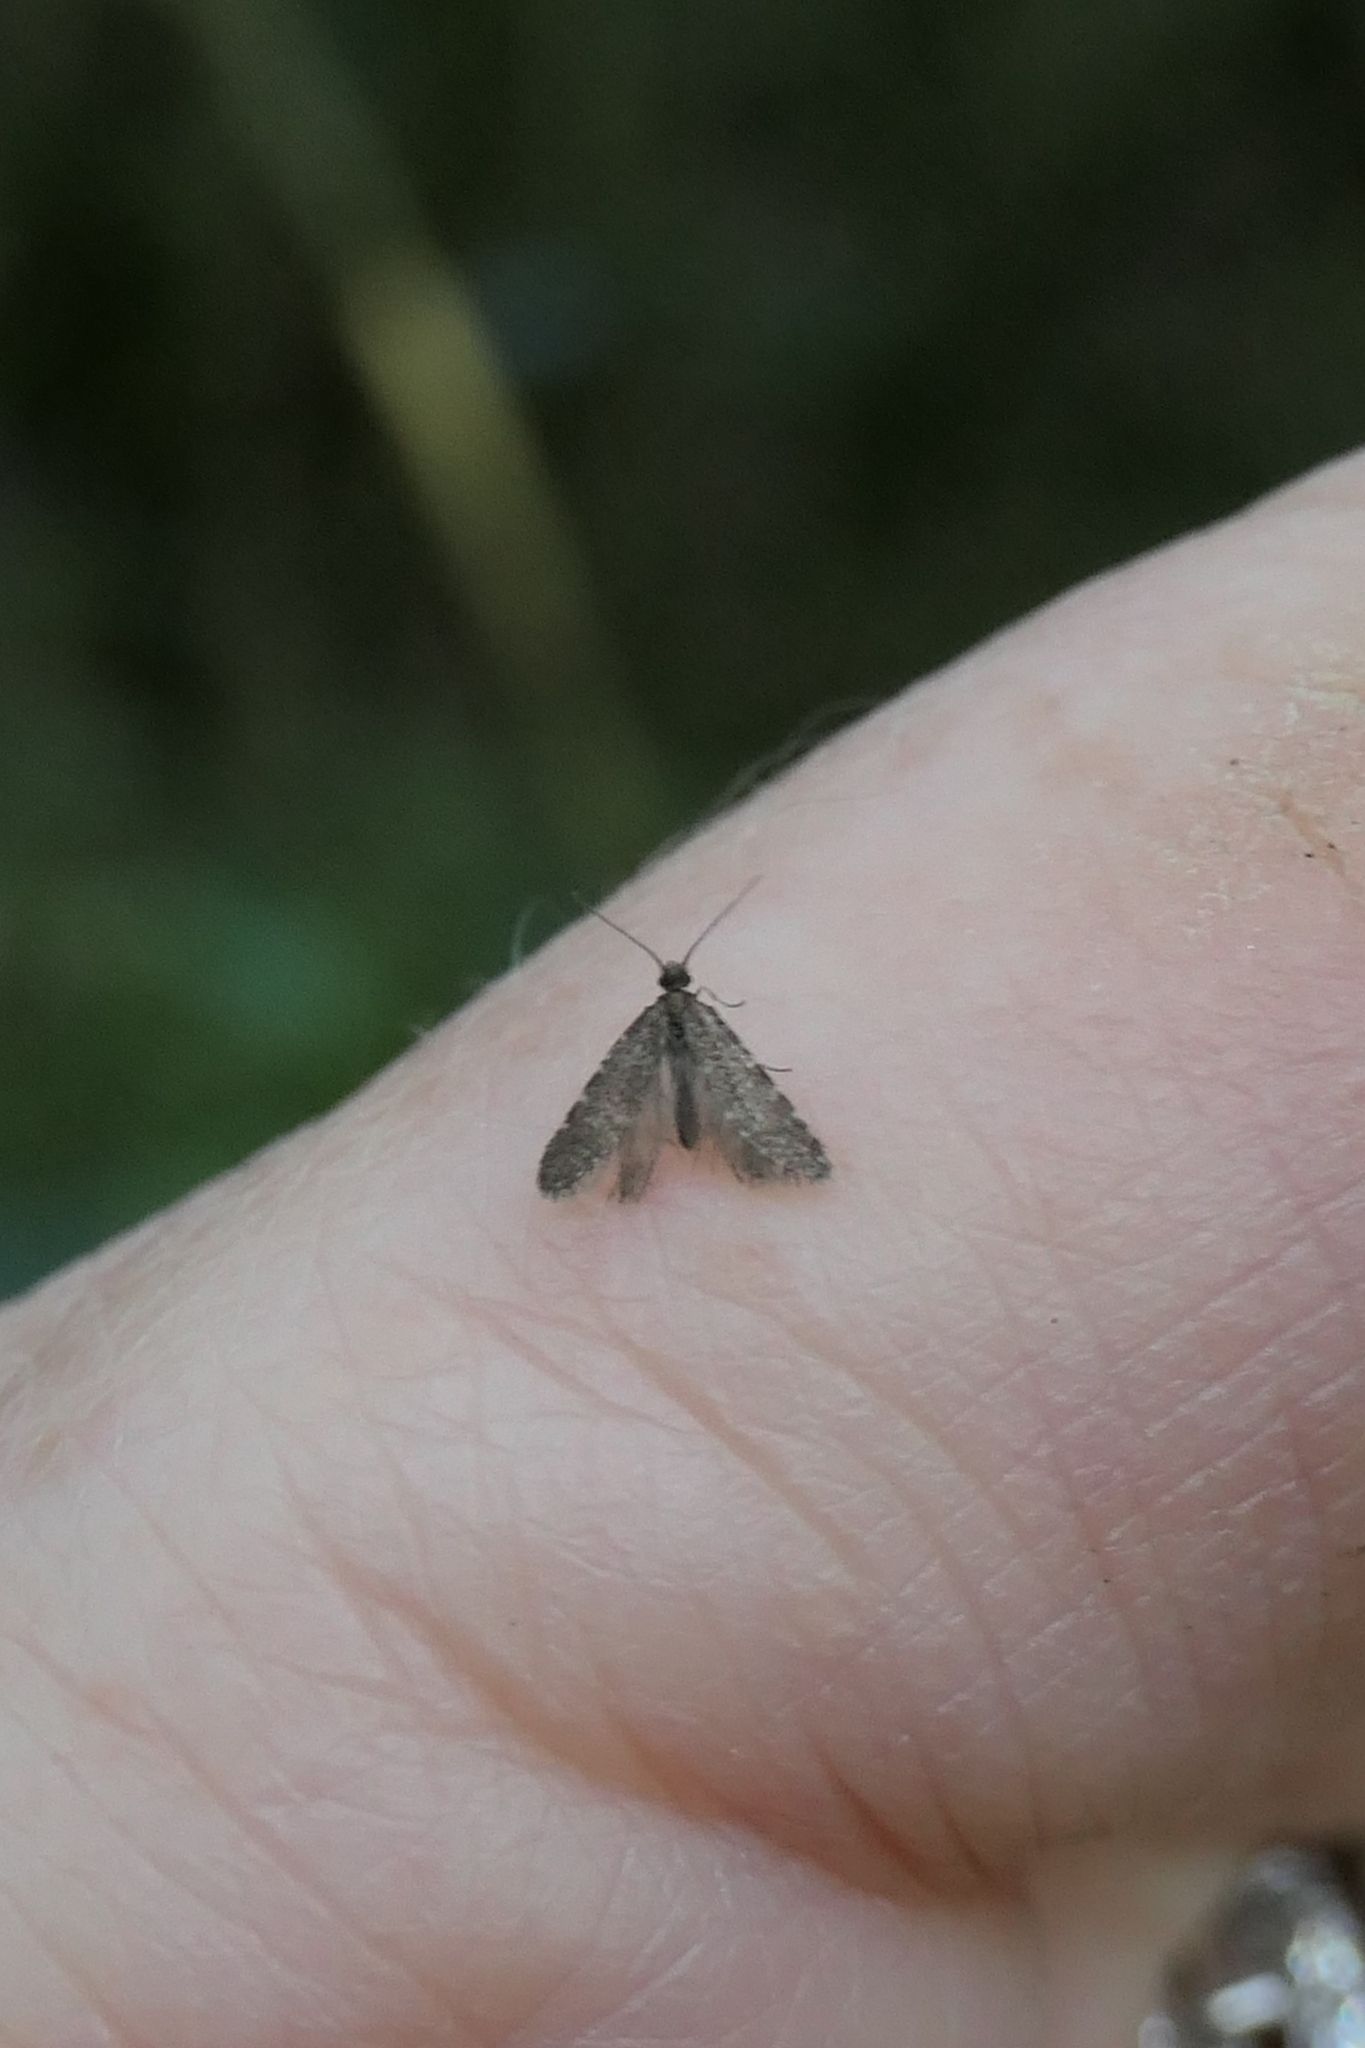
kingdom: Animalia
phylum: Arthropoda
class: Insecta
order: Lepidoptera
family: Psychidae
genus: Reductoderces
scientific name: Reductoderces microphanes
